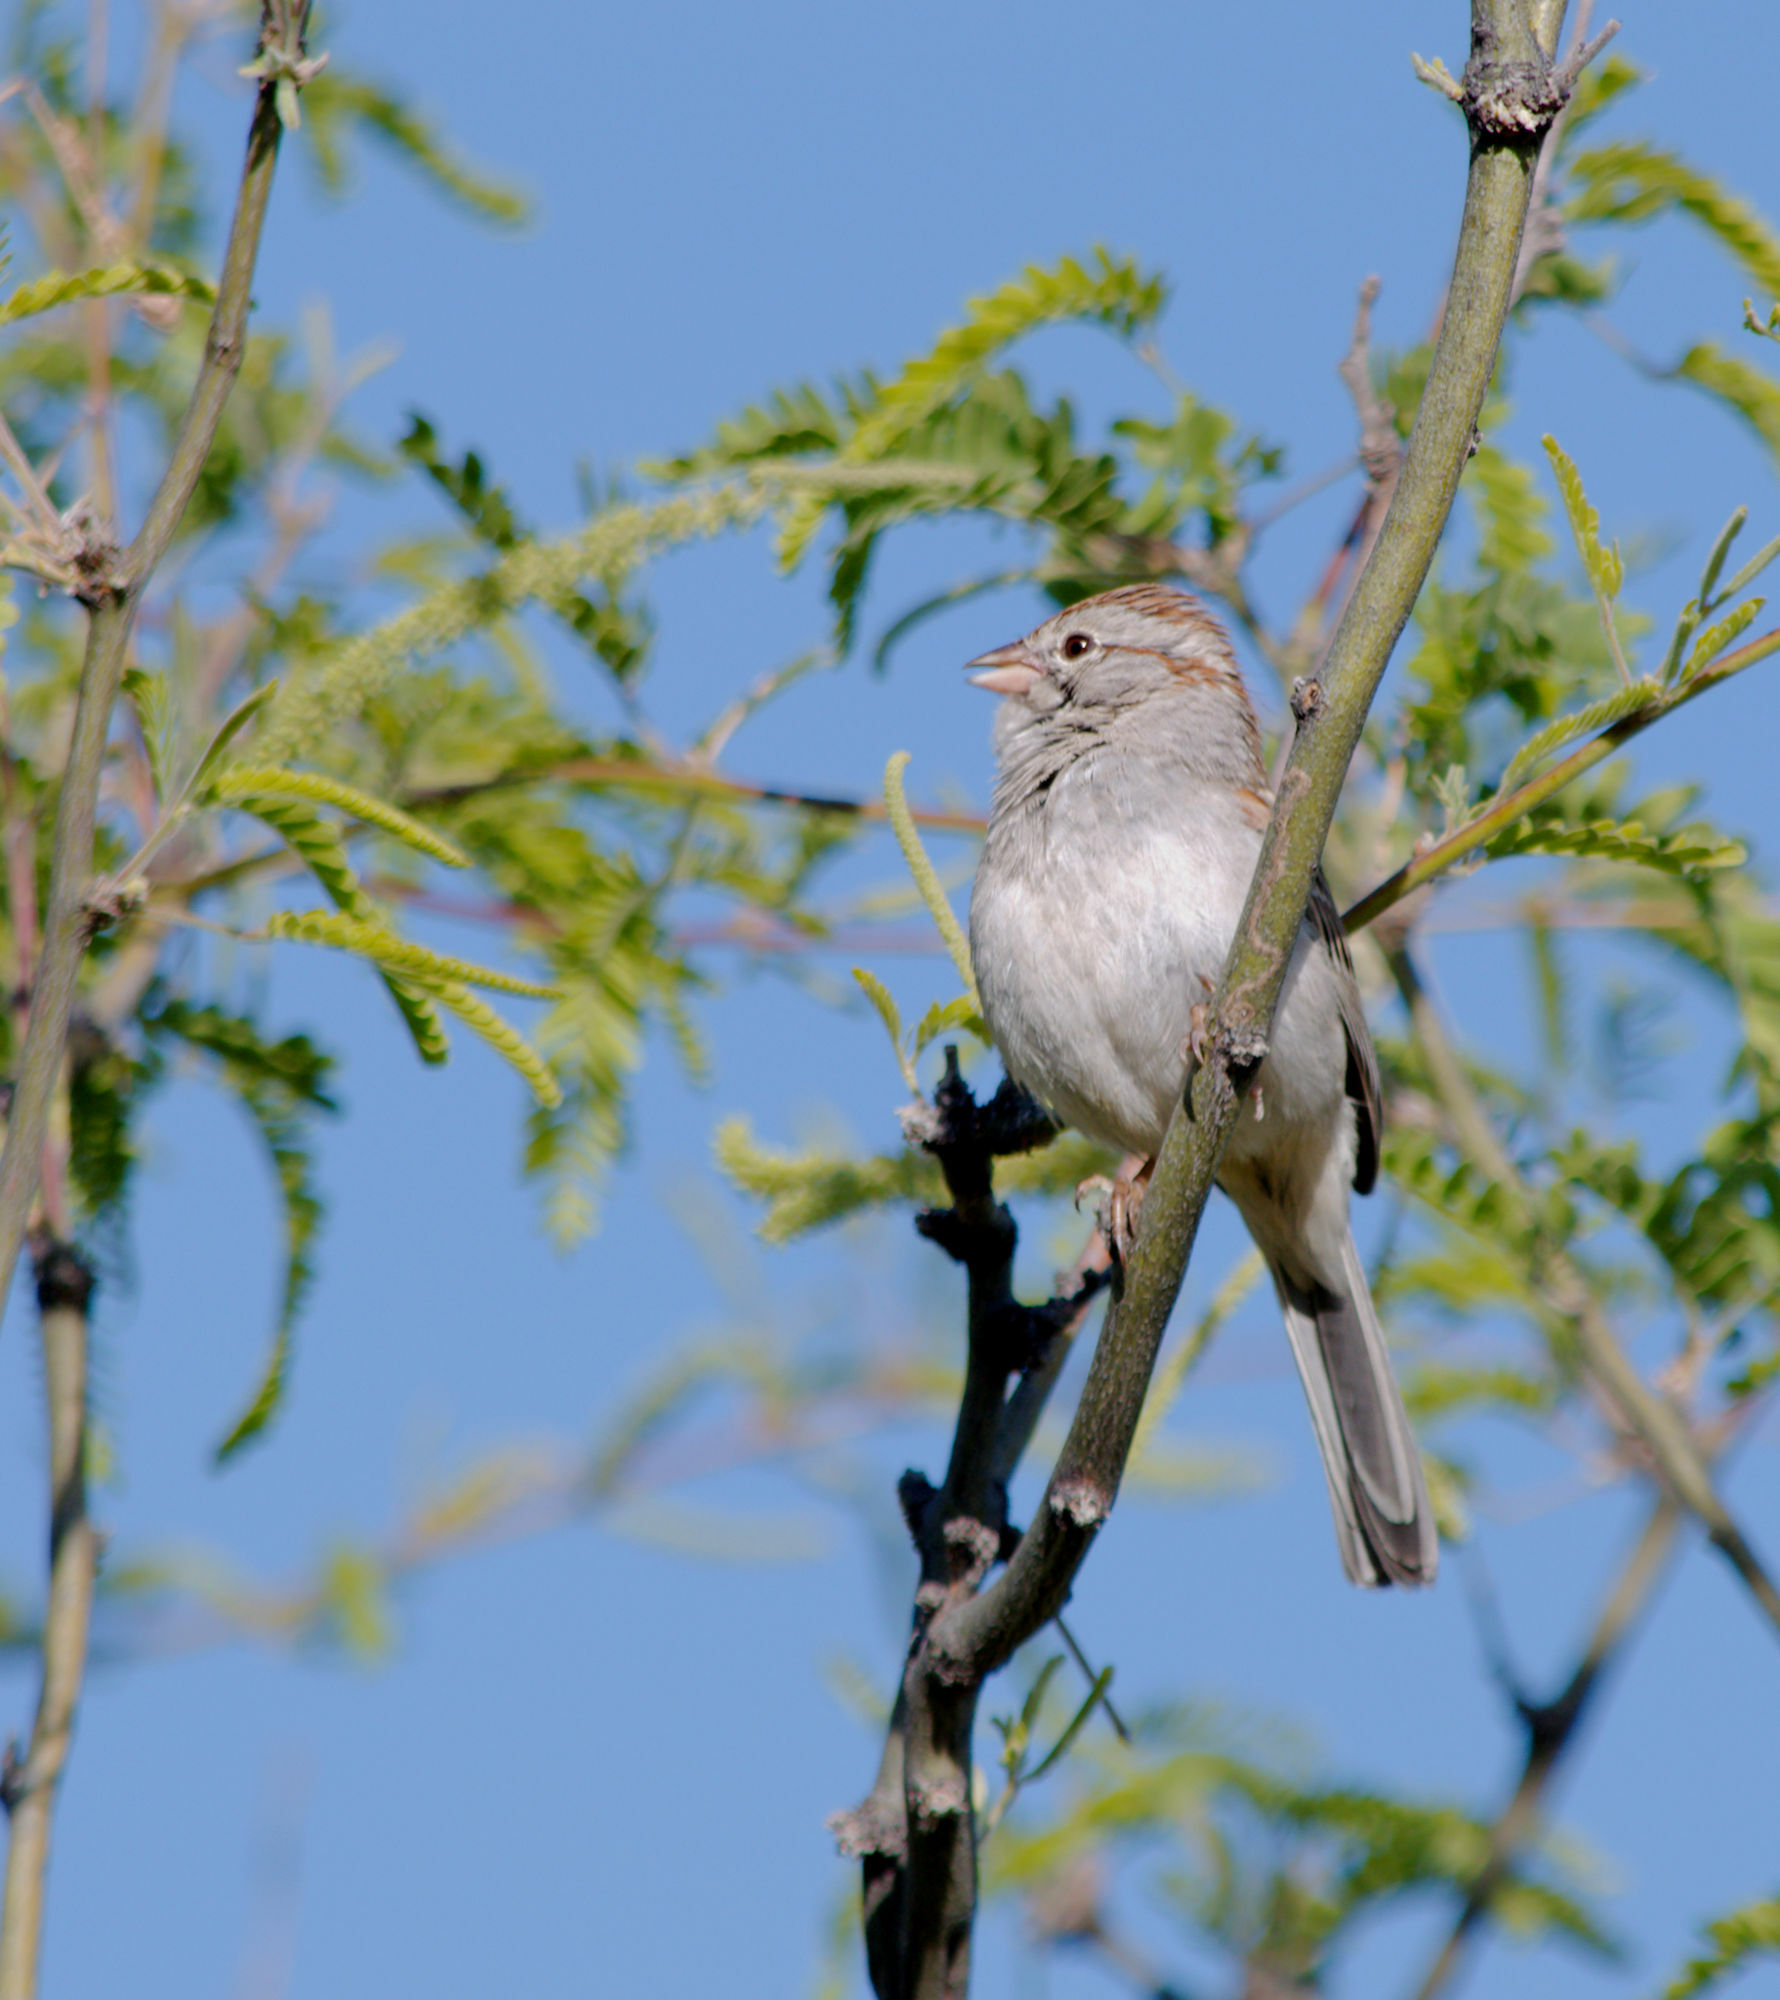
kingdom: Animalia
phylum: Chordata
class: Aves
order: Passeriformes
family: Passerellidae
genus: Peucaea
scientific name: Peucaea carpalis
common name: Rufous-winged sparrow
